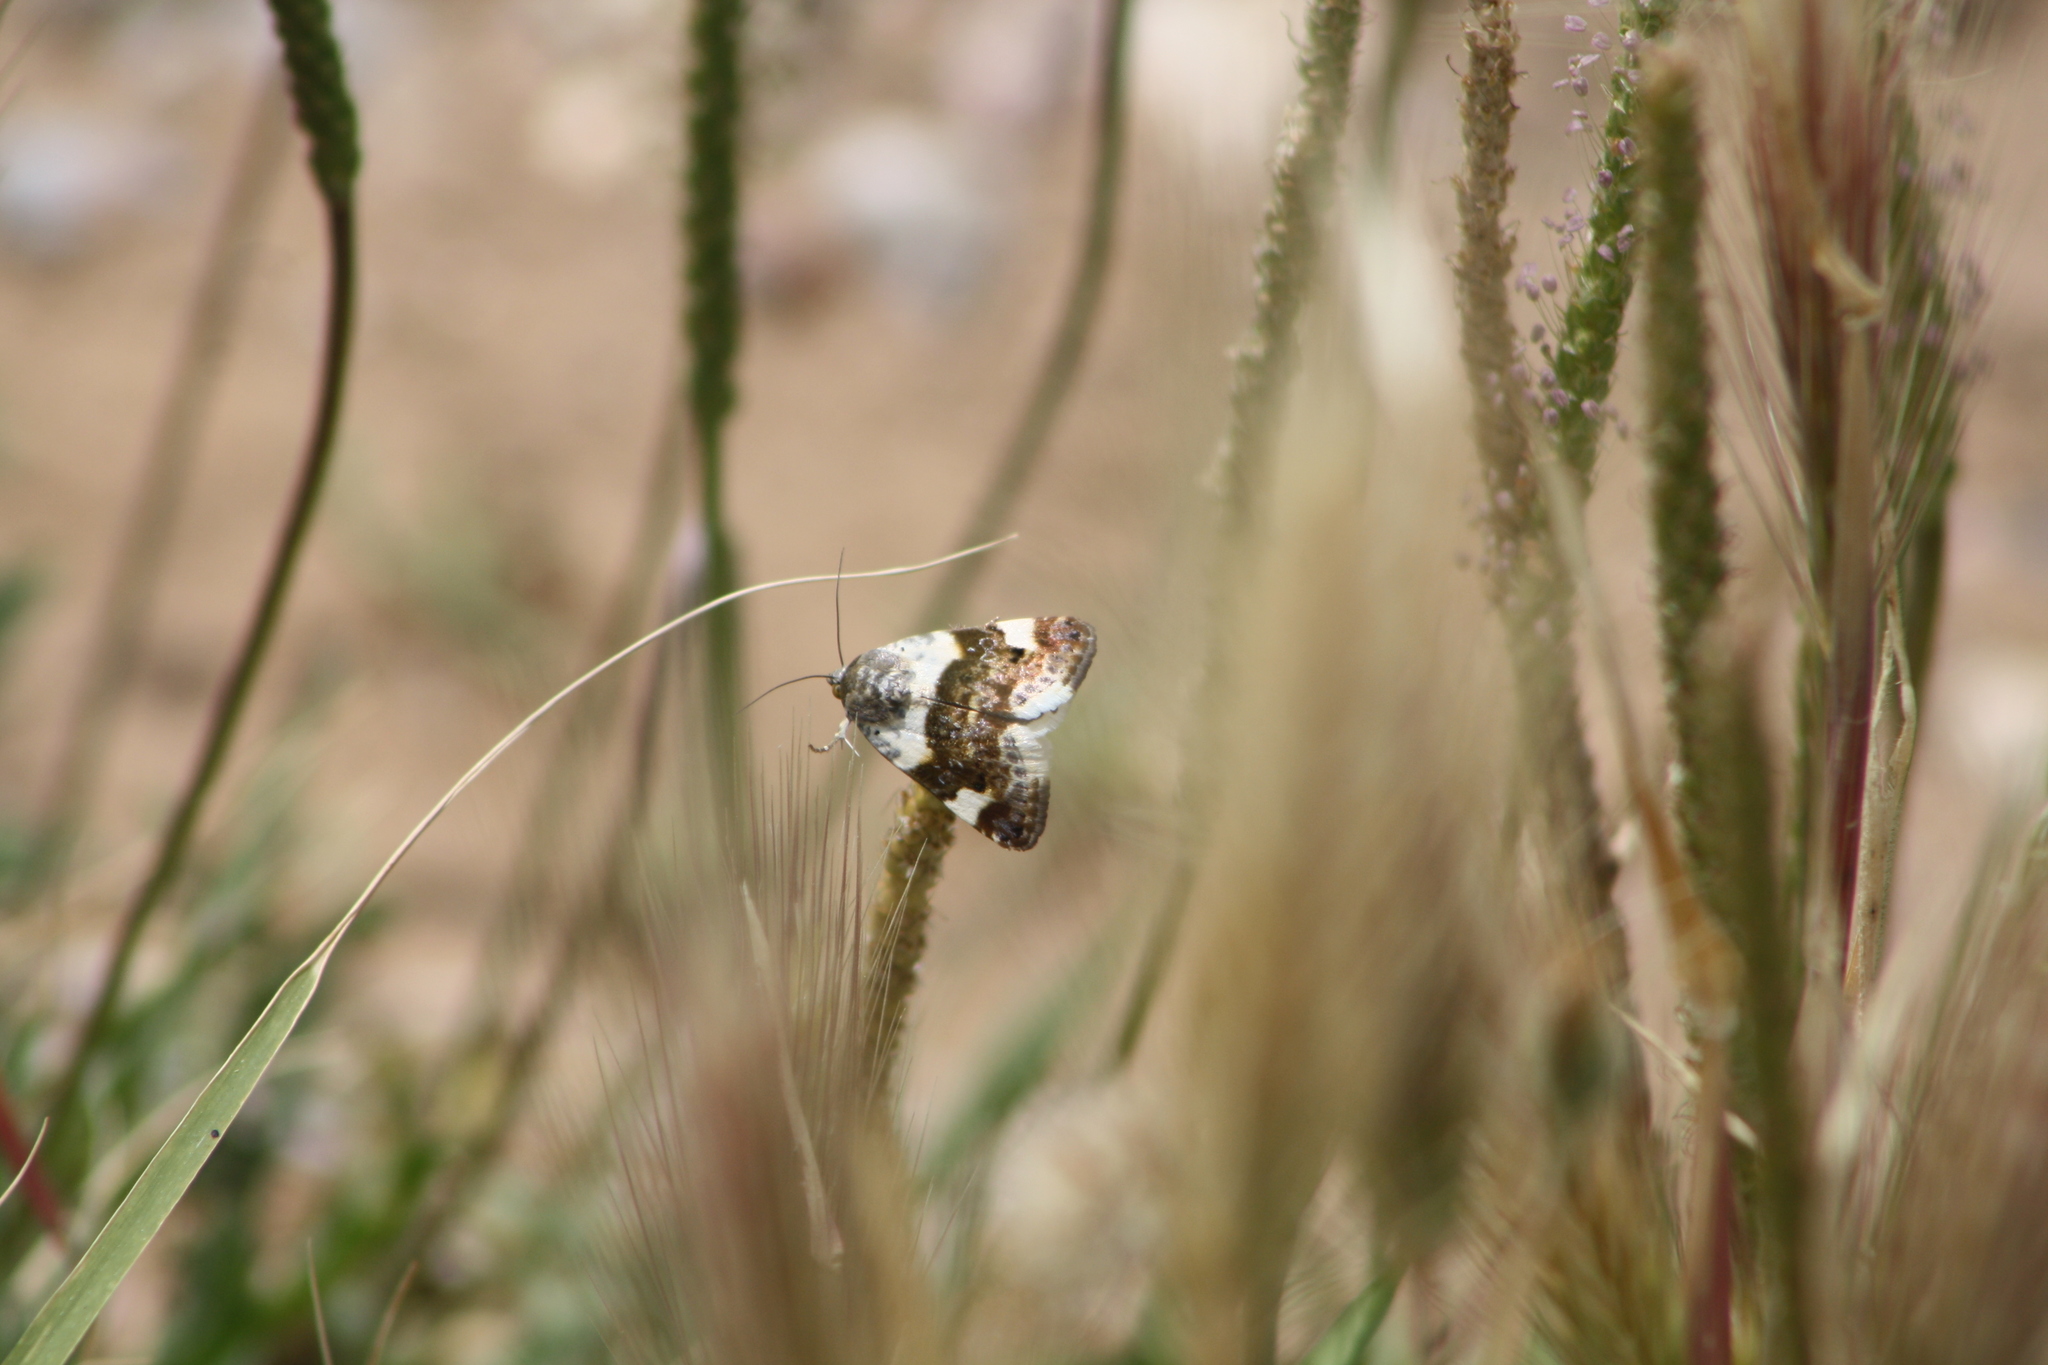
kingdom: Animalia
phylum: Arthropoda
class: Insecta
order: Lepidoptera
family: Noctuidae
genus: Acontia
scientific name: Acontia lucida
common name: Pale shoulder
